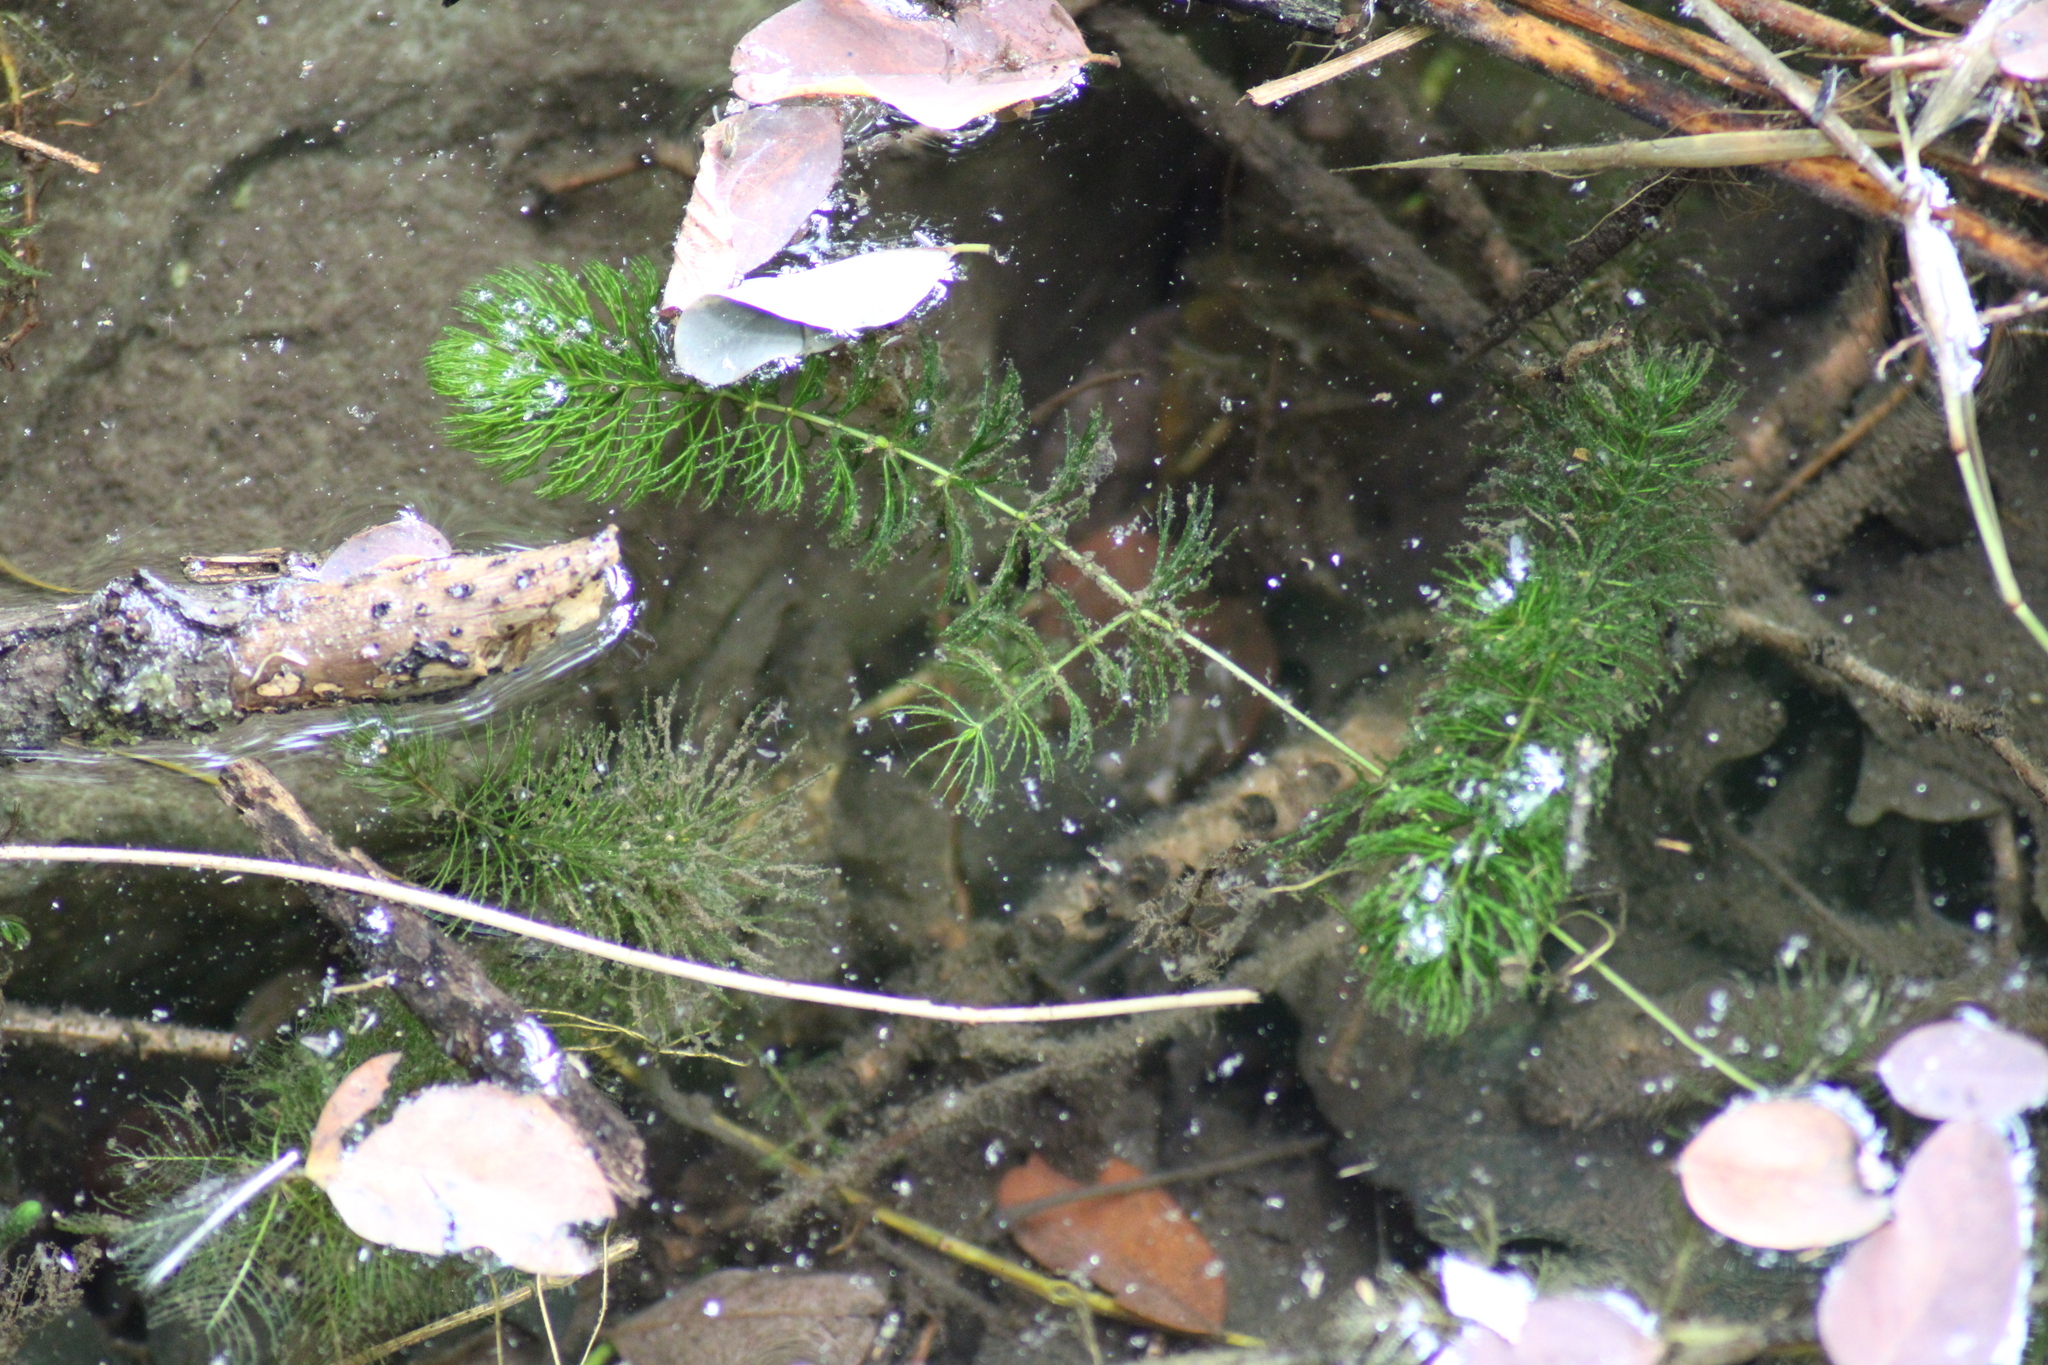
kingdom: Plantae
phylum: Tracheophyta
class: Magnoliopsida
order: Ceratophyllales
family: Ceratophyllaceae
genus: Ceratophyllum
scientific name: Ceratophyllum demersum
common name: Rigid hornwort
